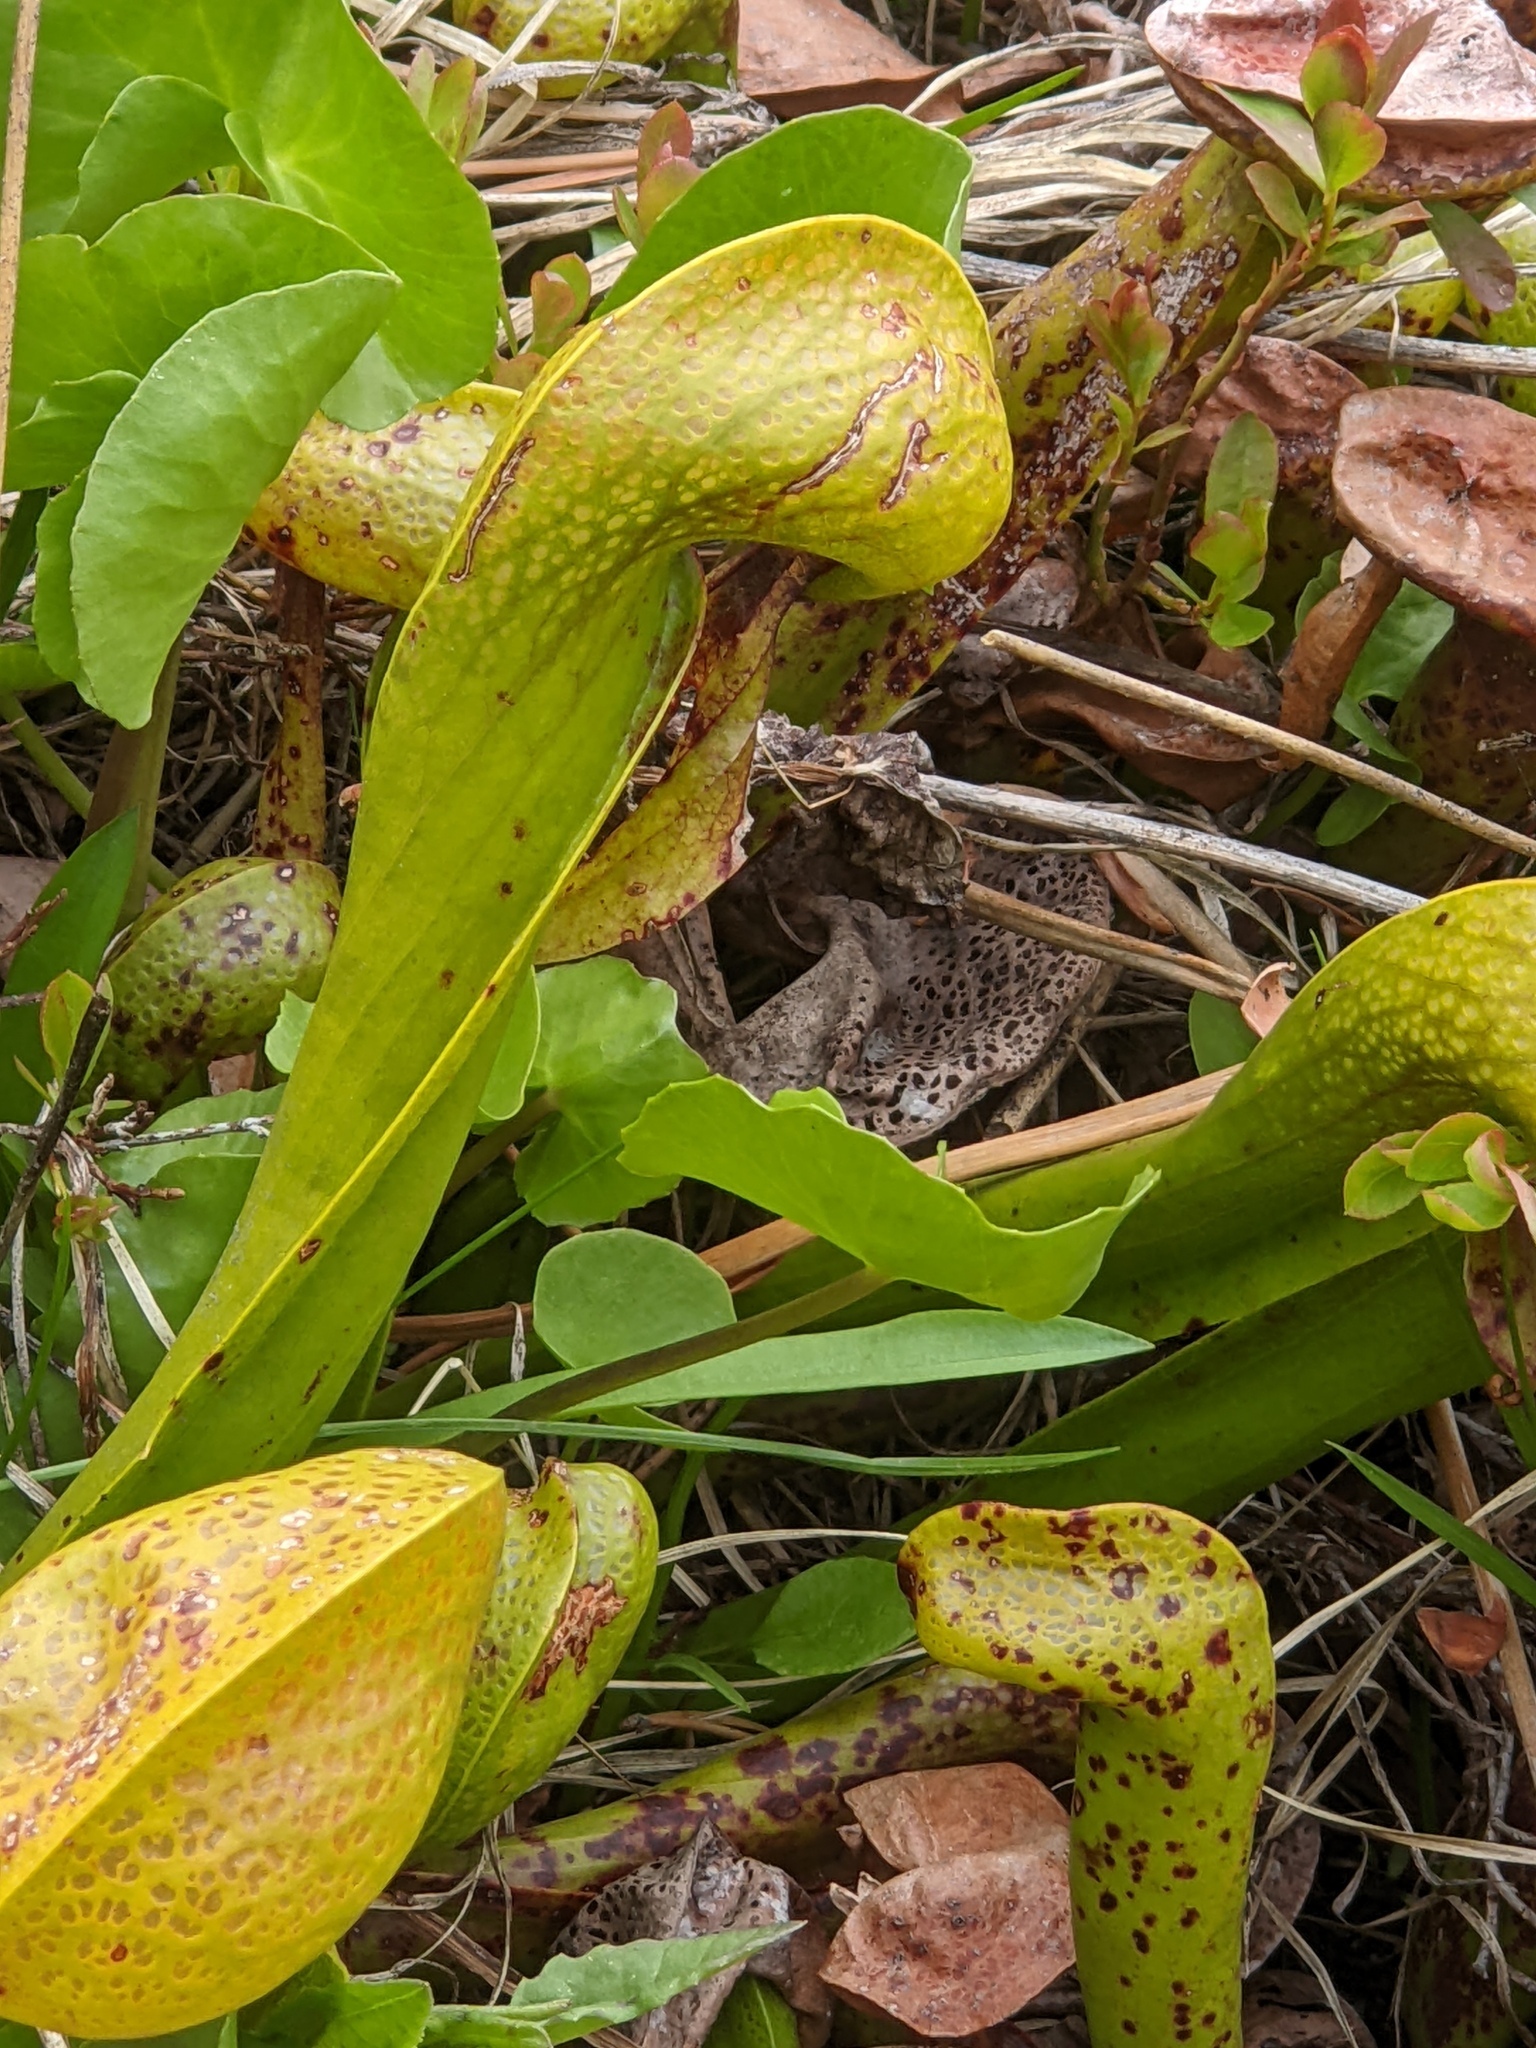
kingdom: Plantae
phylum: Tracheophyta
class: Magnoliopsida
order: Ericales
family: Sarraceniaceae
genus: Darlingtonia
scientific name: Darlingtonia californica
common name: California pitcher plant
